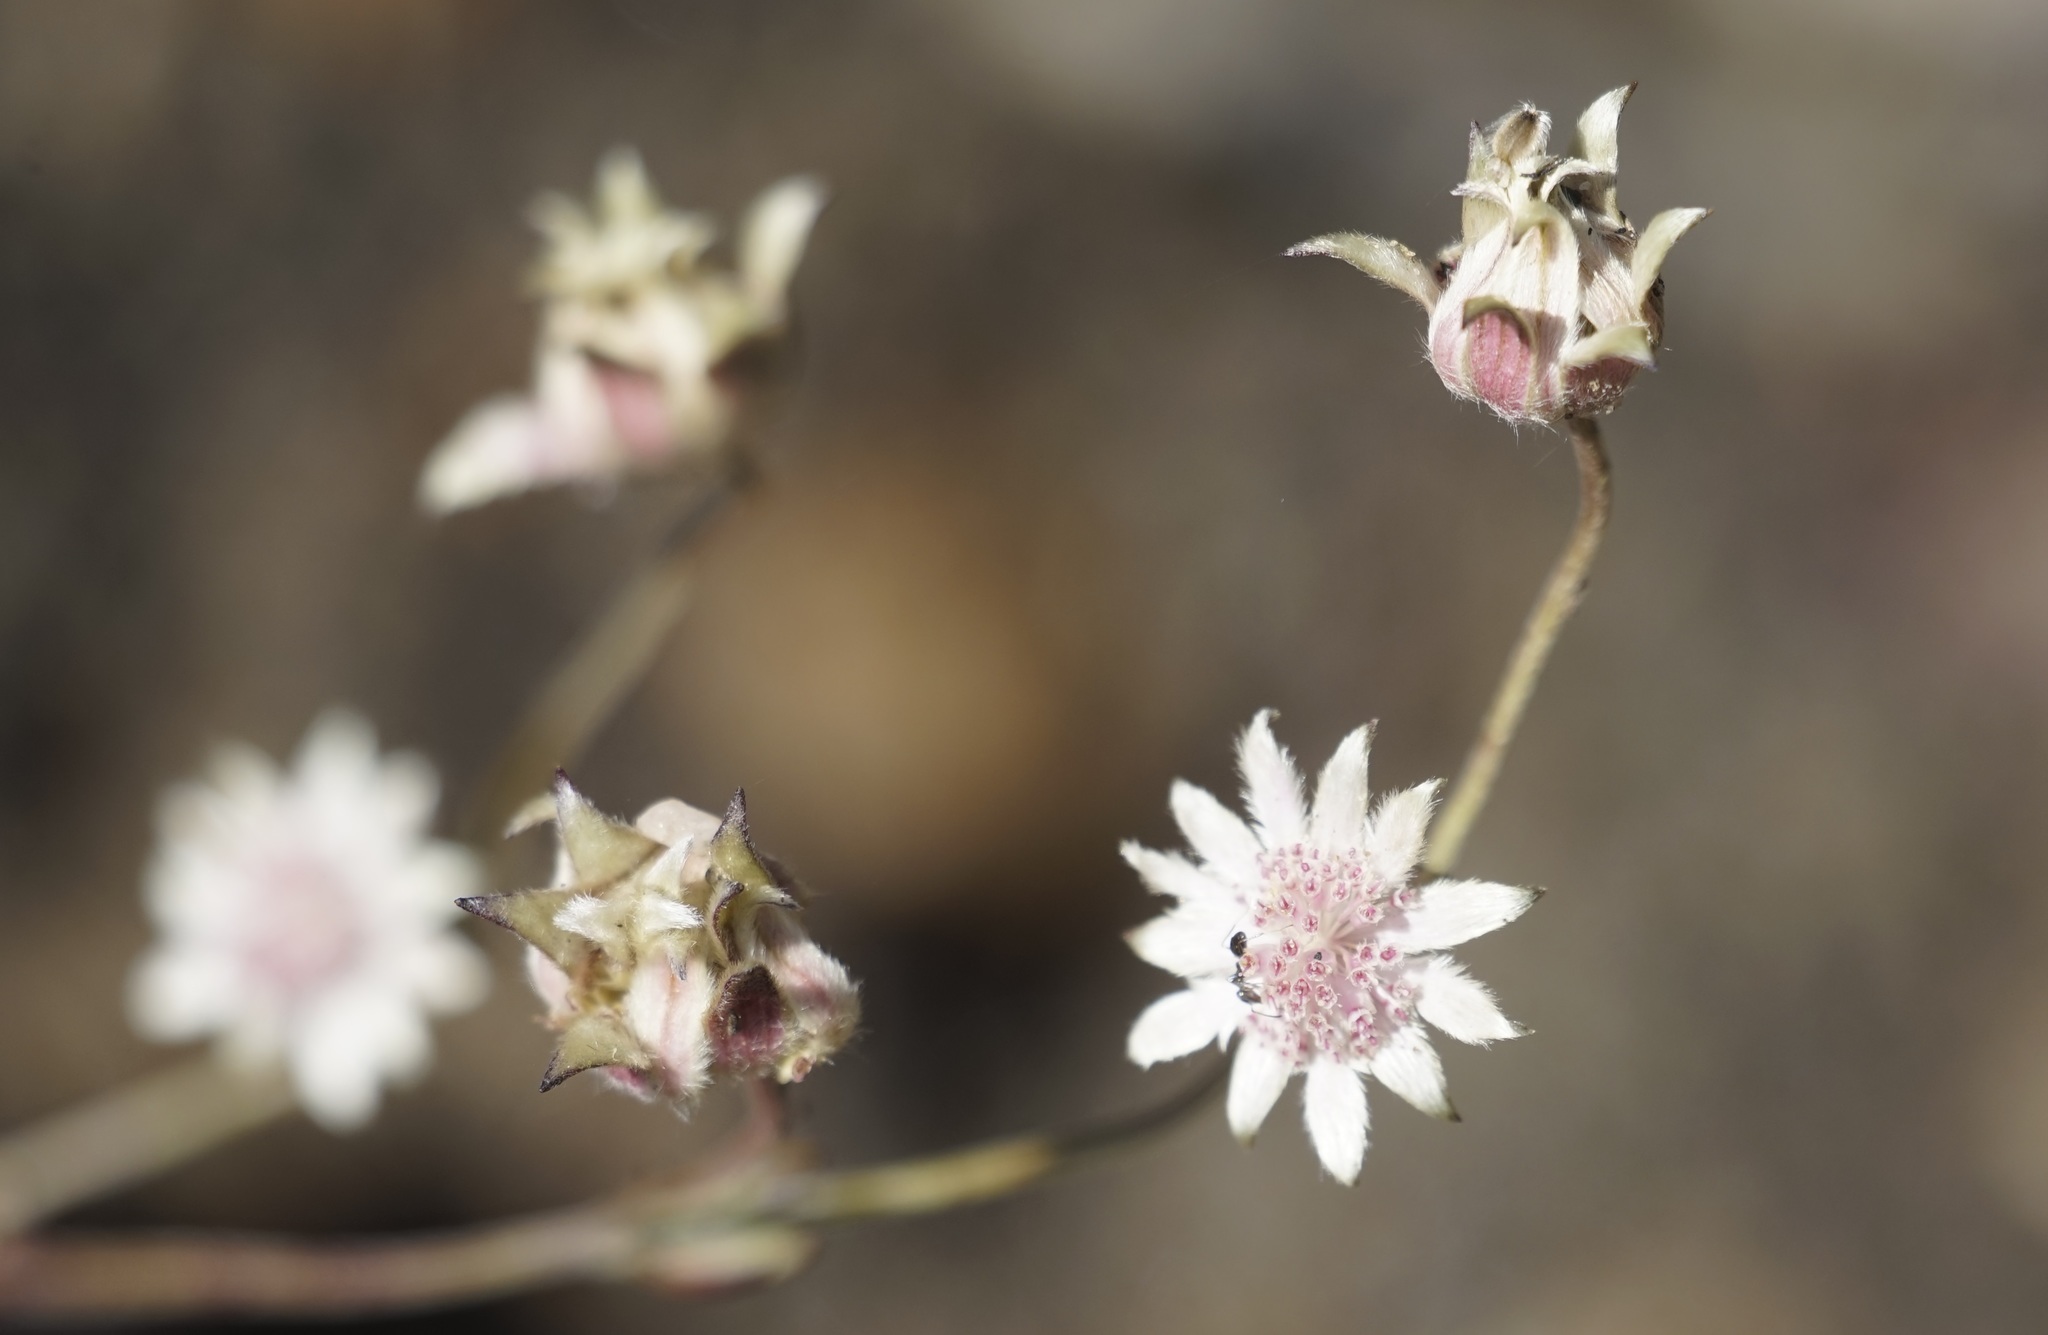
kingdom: Plantae
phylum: Tracheophyta
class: Magnoliopsida
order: Apiales
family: Apiaceae
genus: Actinotus
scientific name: Actinotus forsythii
